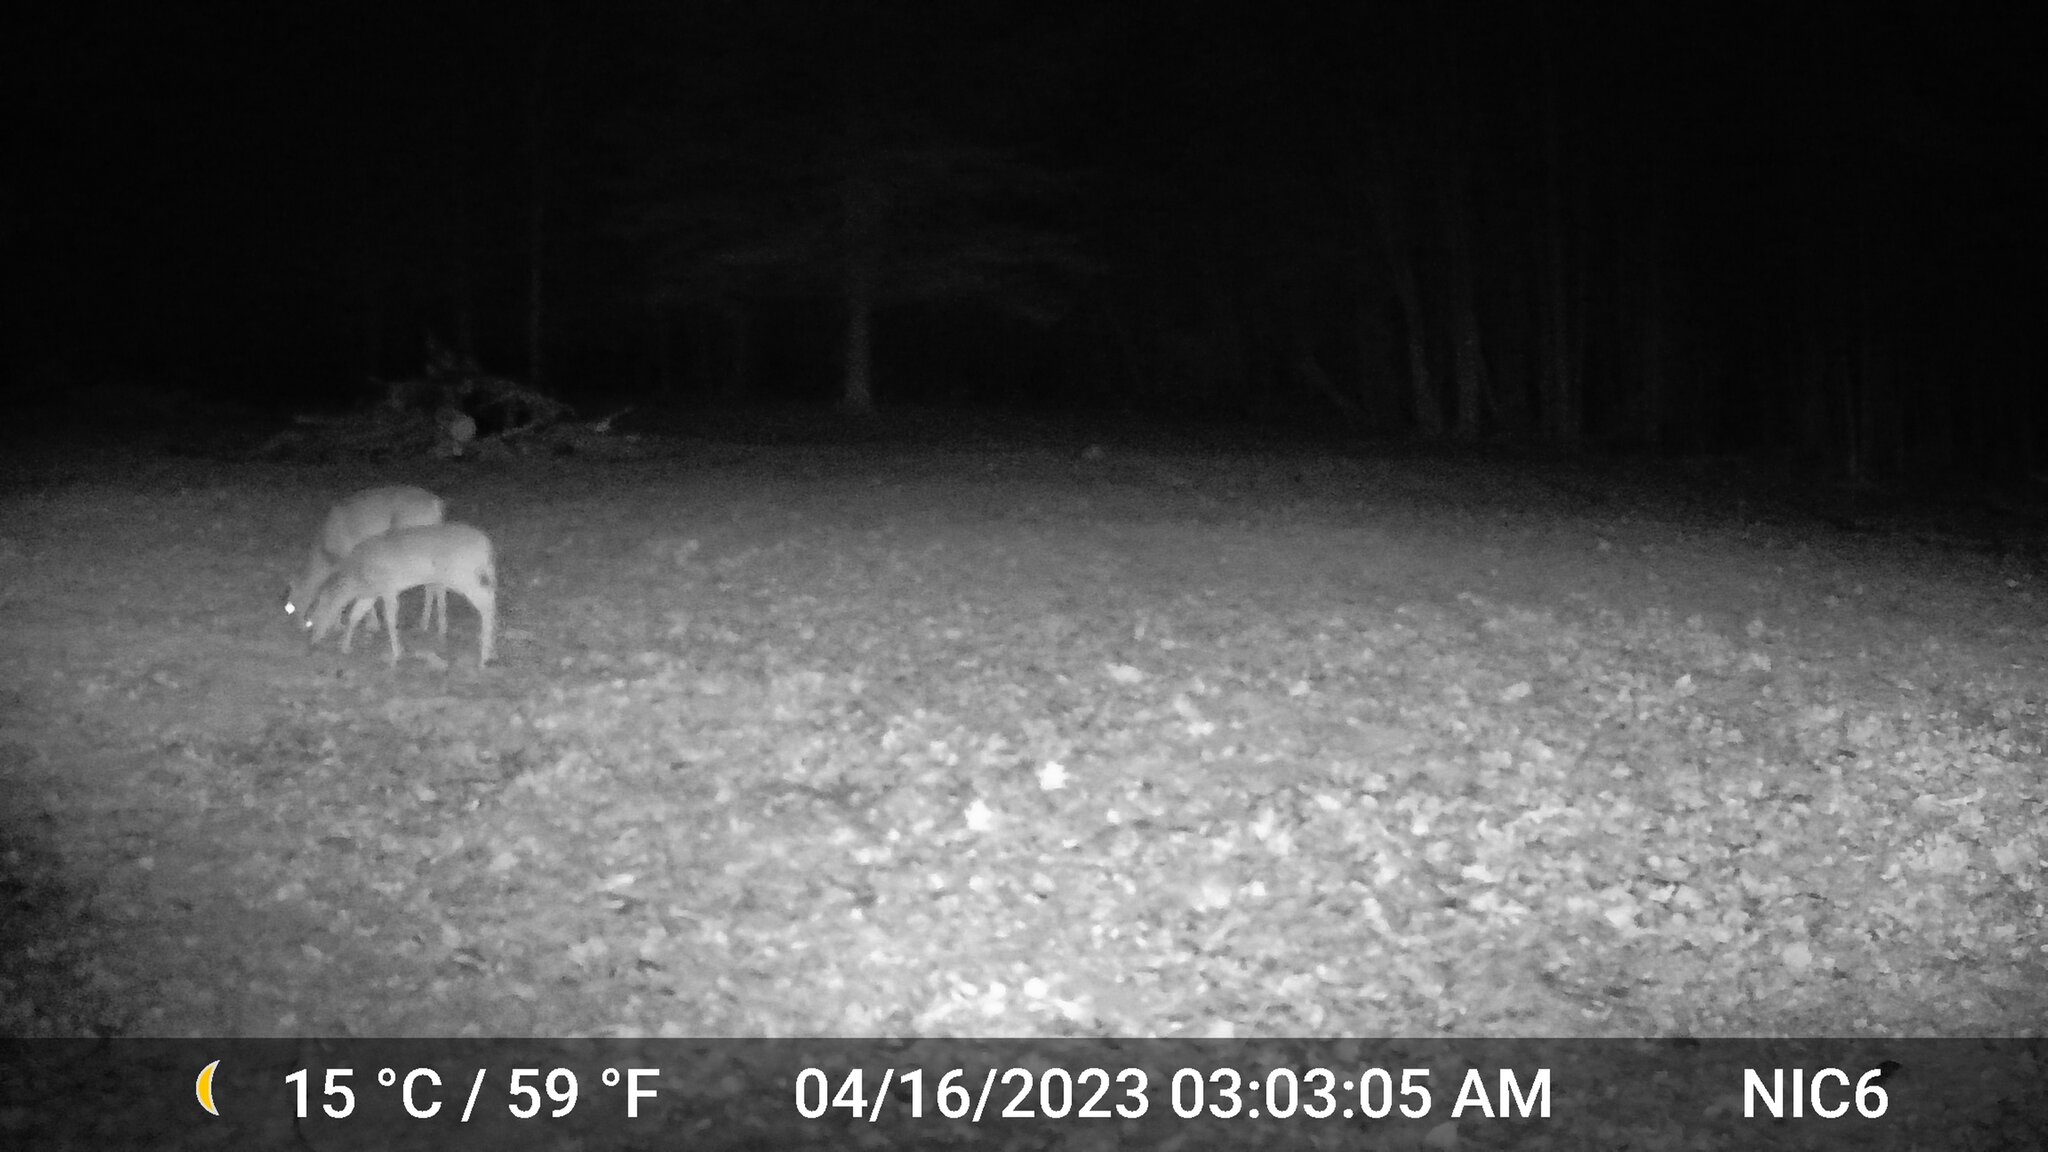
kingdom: Animalia
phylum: Chordata
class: Mammalia
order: Artiodactyla
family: Cervidae
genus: Odocoileus
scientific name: Odocoileus virginianus
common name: White-tailed deer
